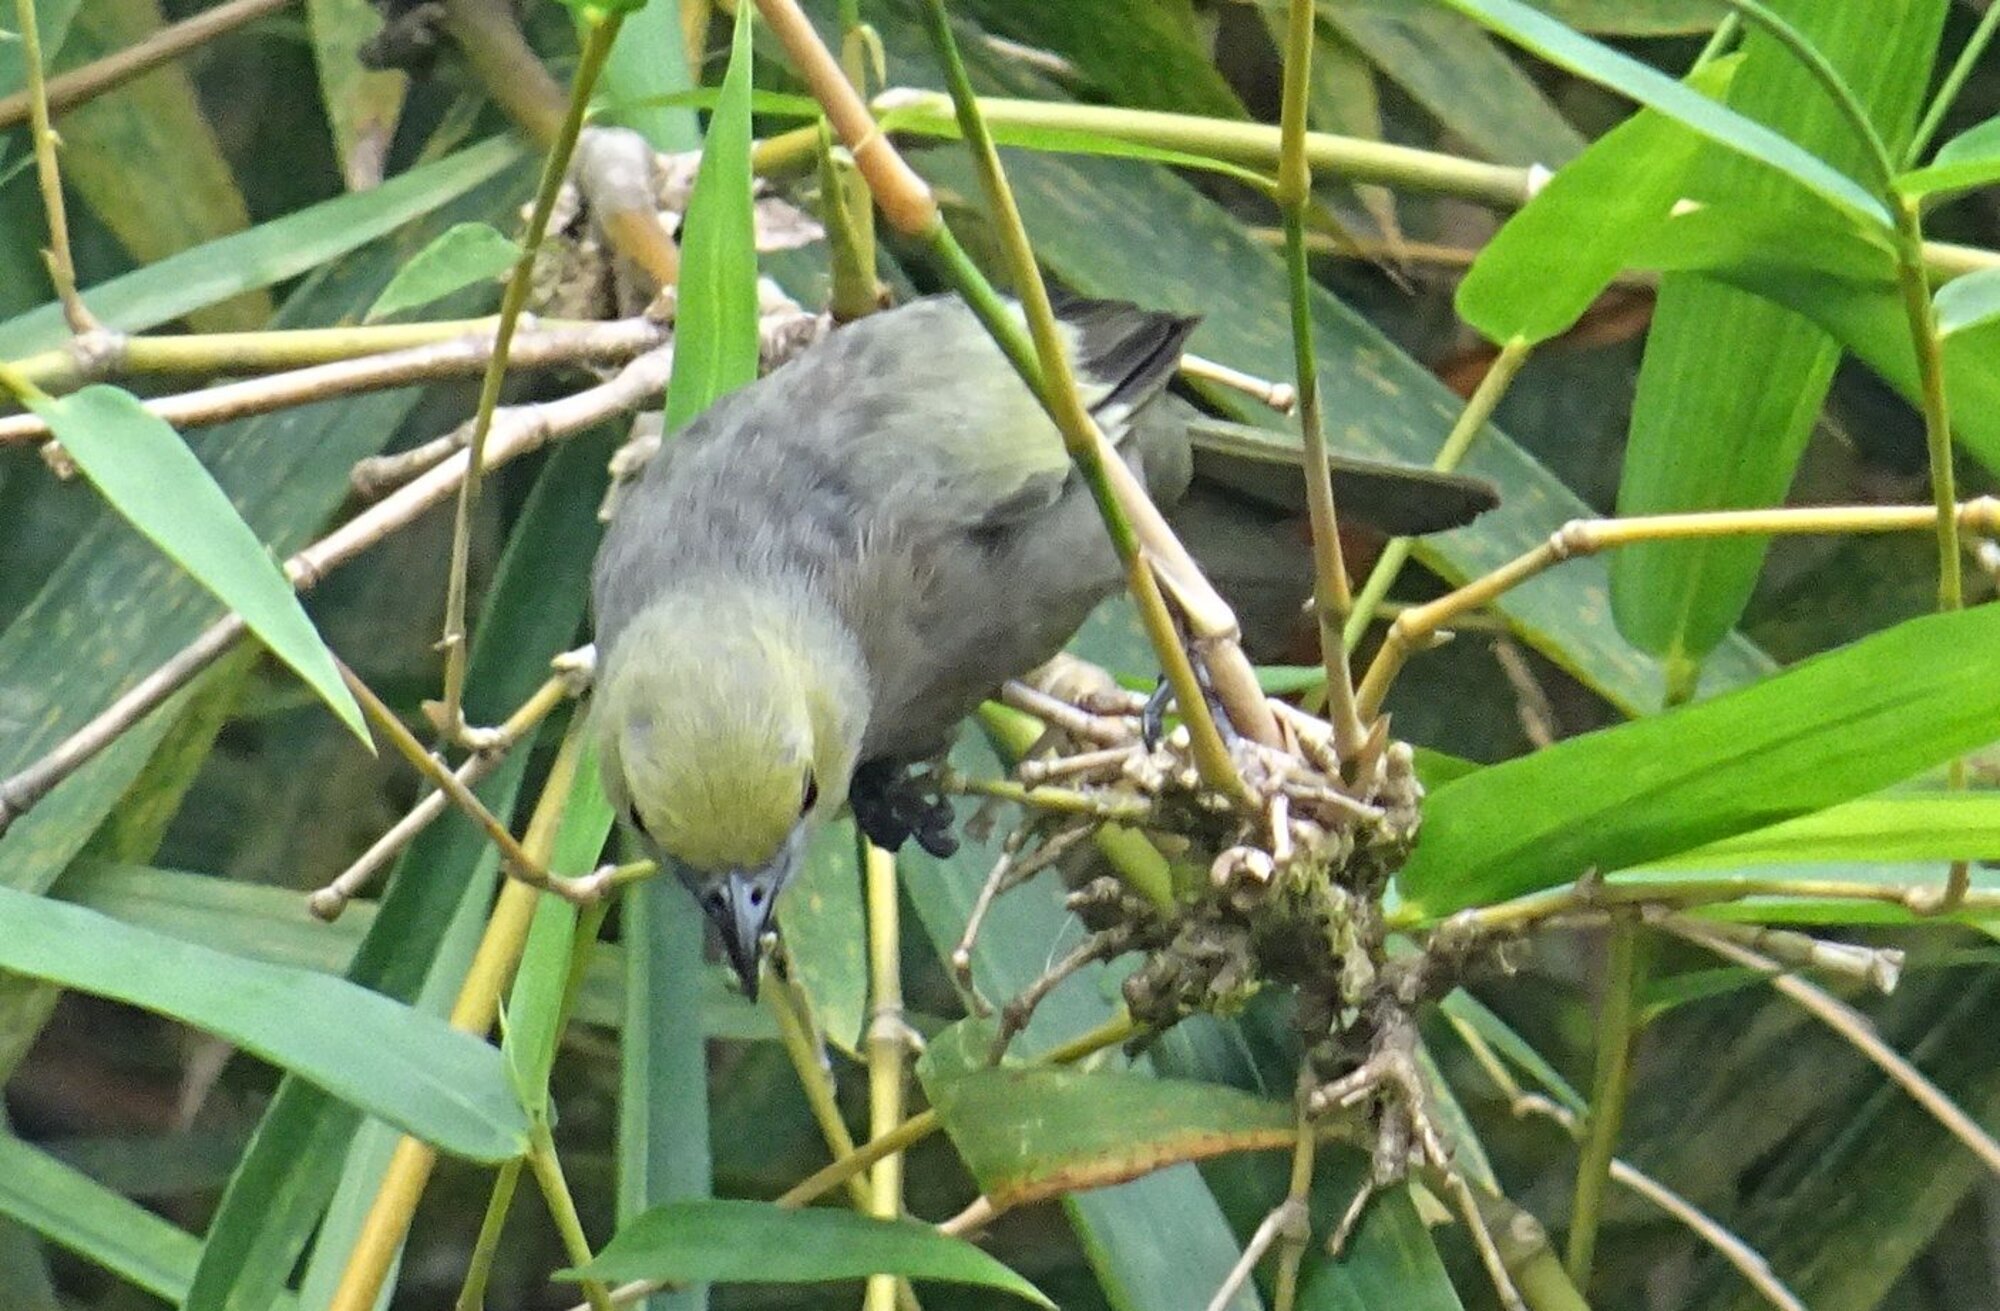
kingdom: Animalia
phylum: Chordata
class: Aves
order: Passeriformes
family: Thraupidae
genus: Thraupis
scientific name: Thraupis palmarum
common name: Palm tanager
